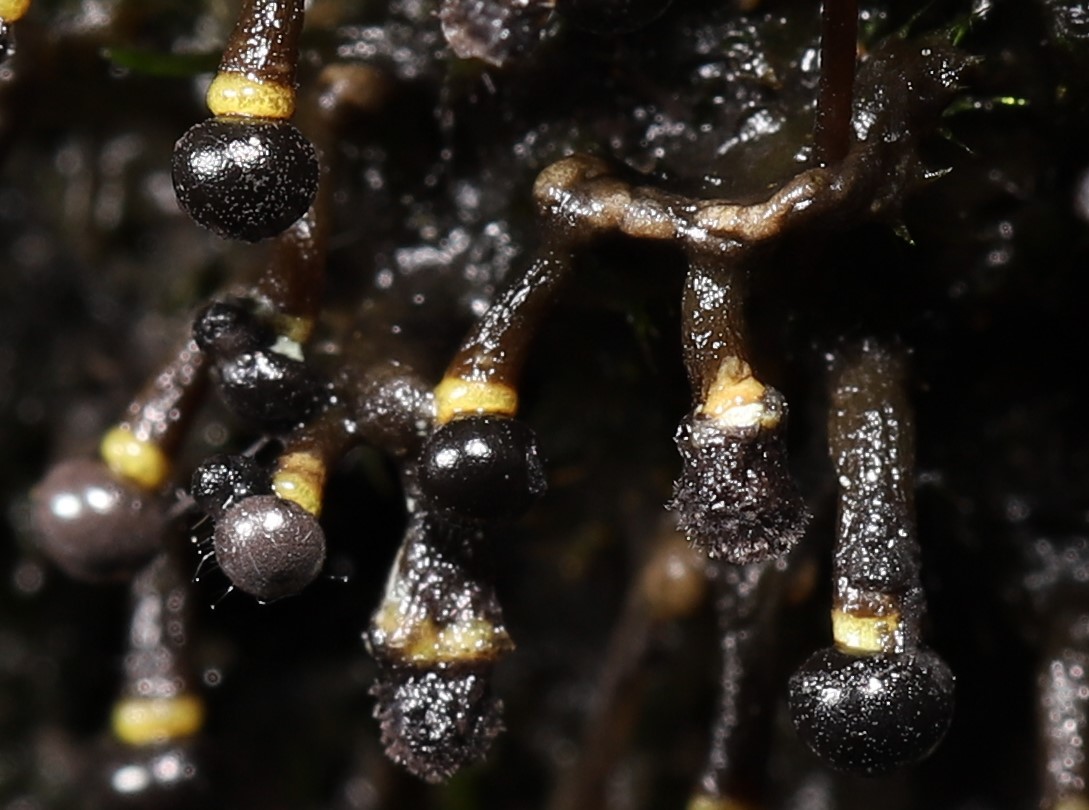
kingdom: Protozoa
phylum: Mycetozoa
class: Myxomycetes
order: Physarales
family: Elaeomyxaceae
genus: Elaeomyxa
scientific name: Elaeomyxa cerifera
